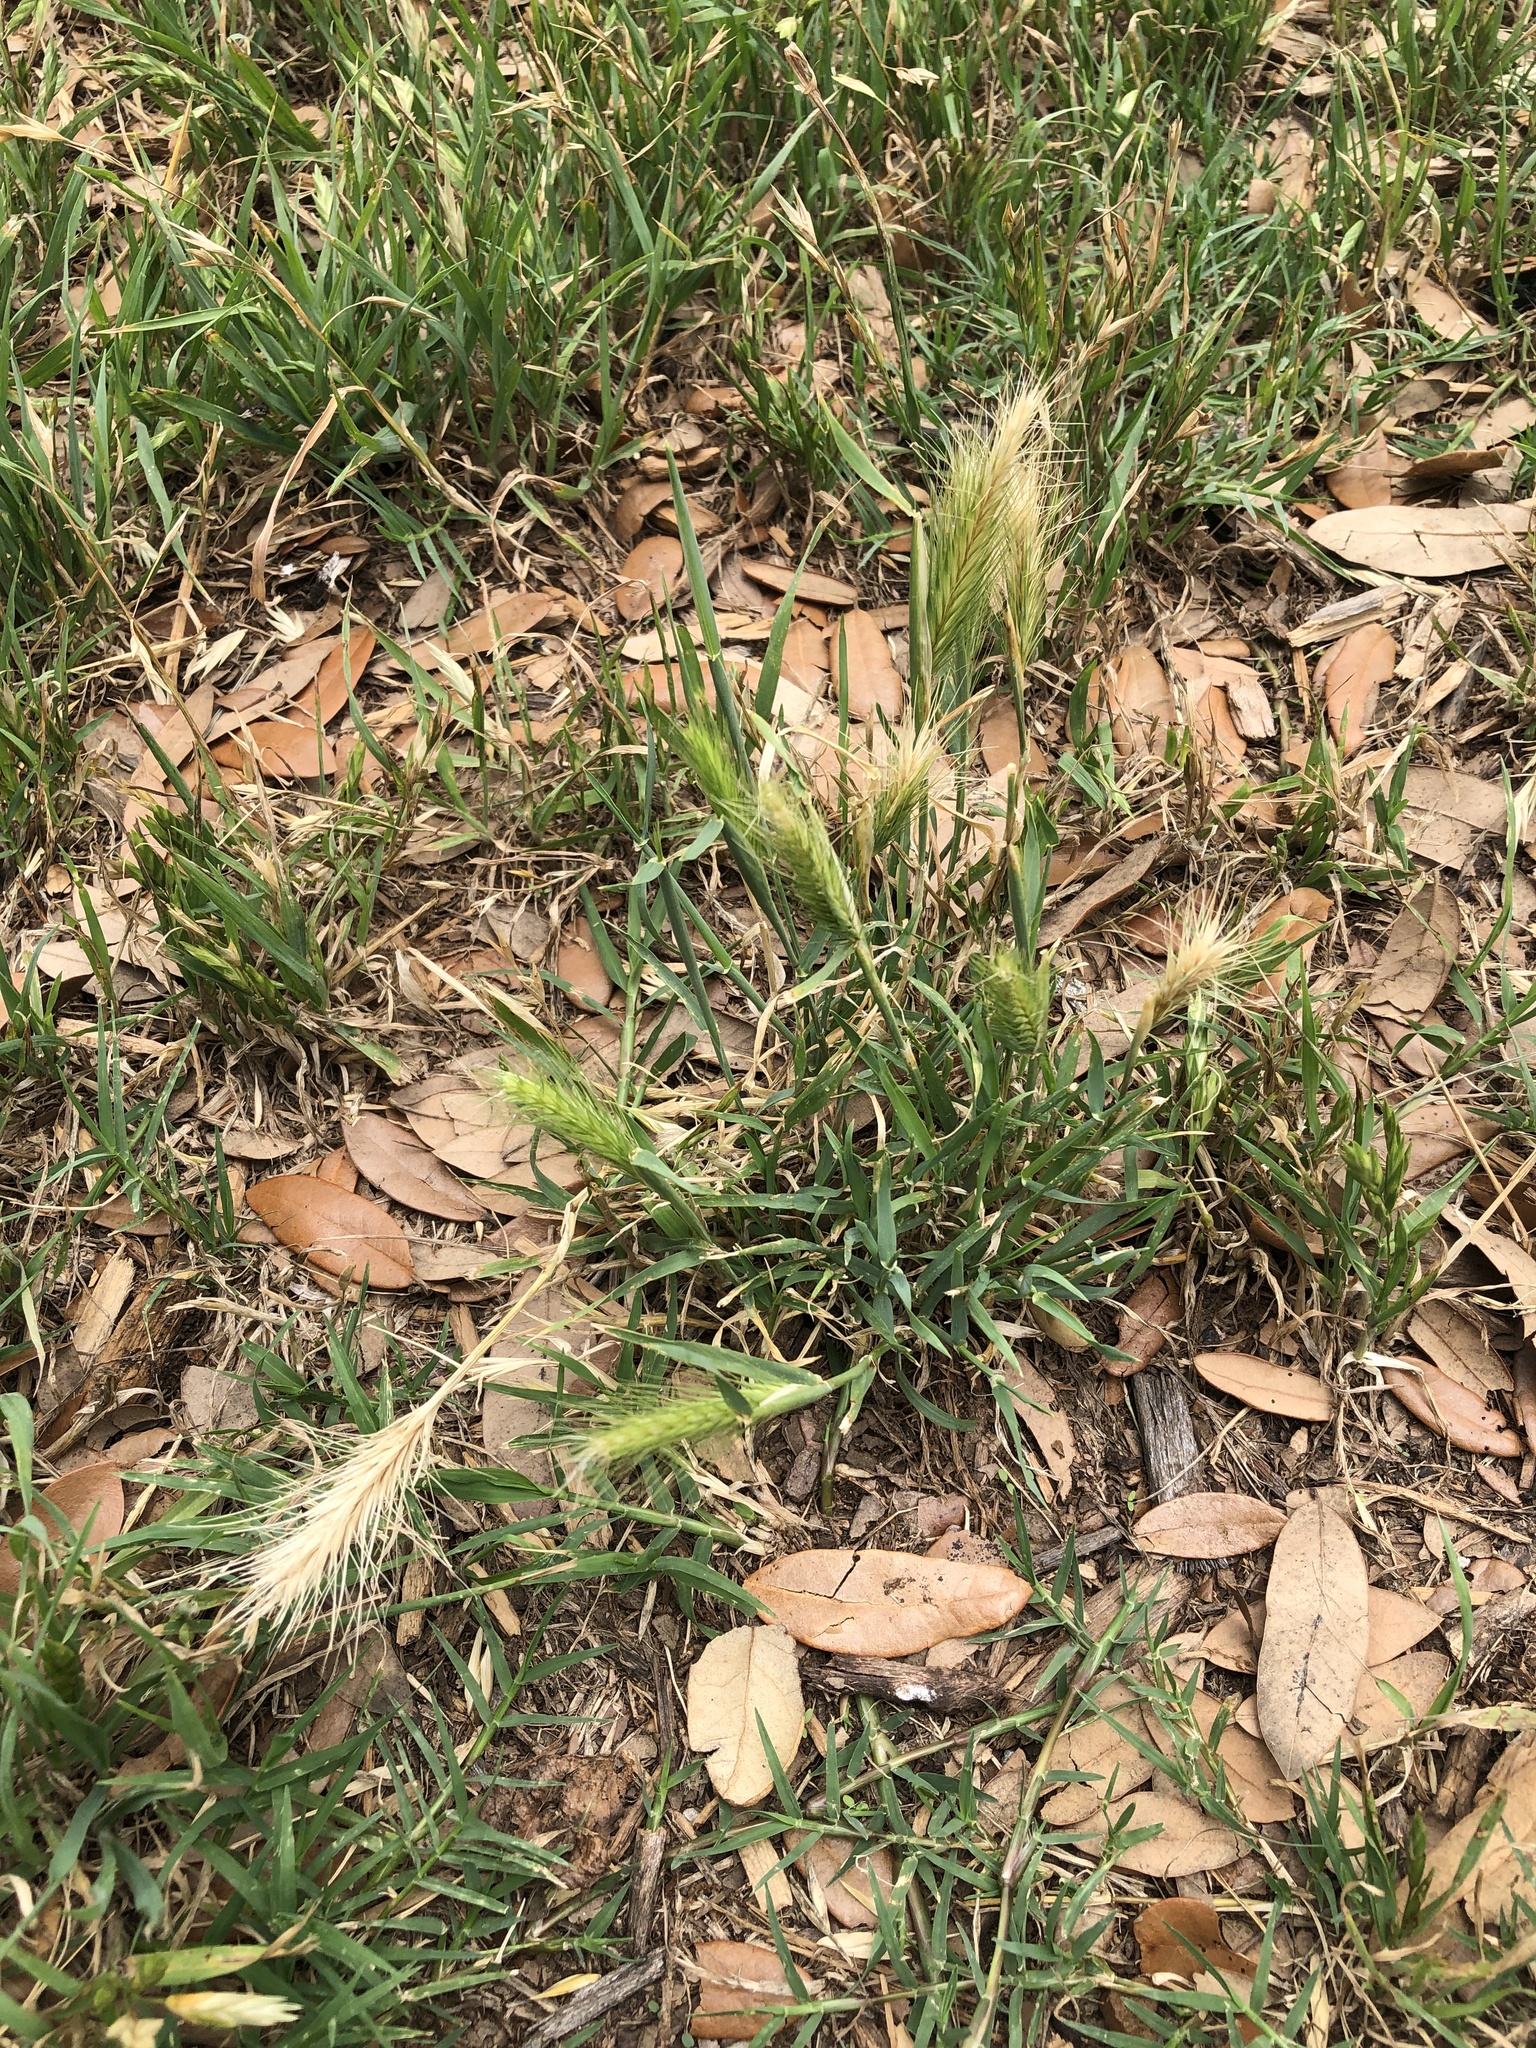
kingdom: Plantae
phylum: Tracheophyta
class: Liliopsida
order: Poales
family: Poaceae
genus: Hordeum
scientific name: Hordeum murinum
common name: Wall barley
